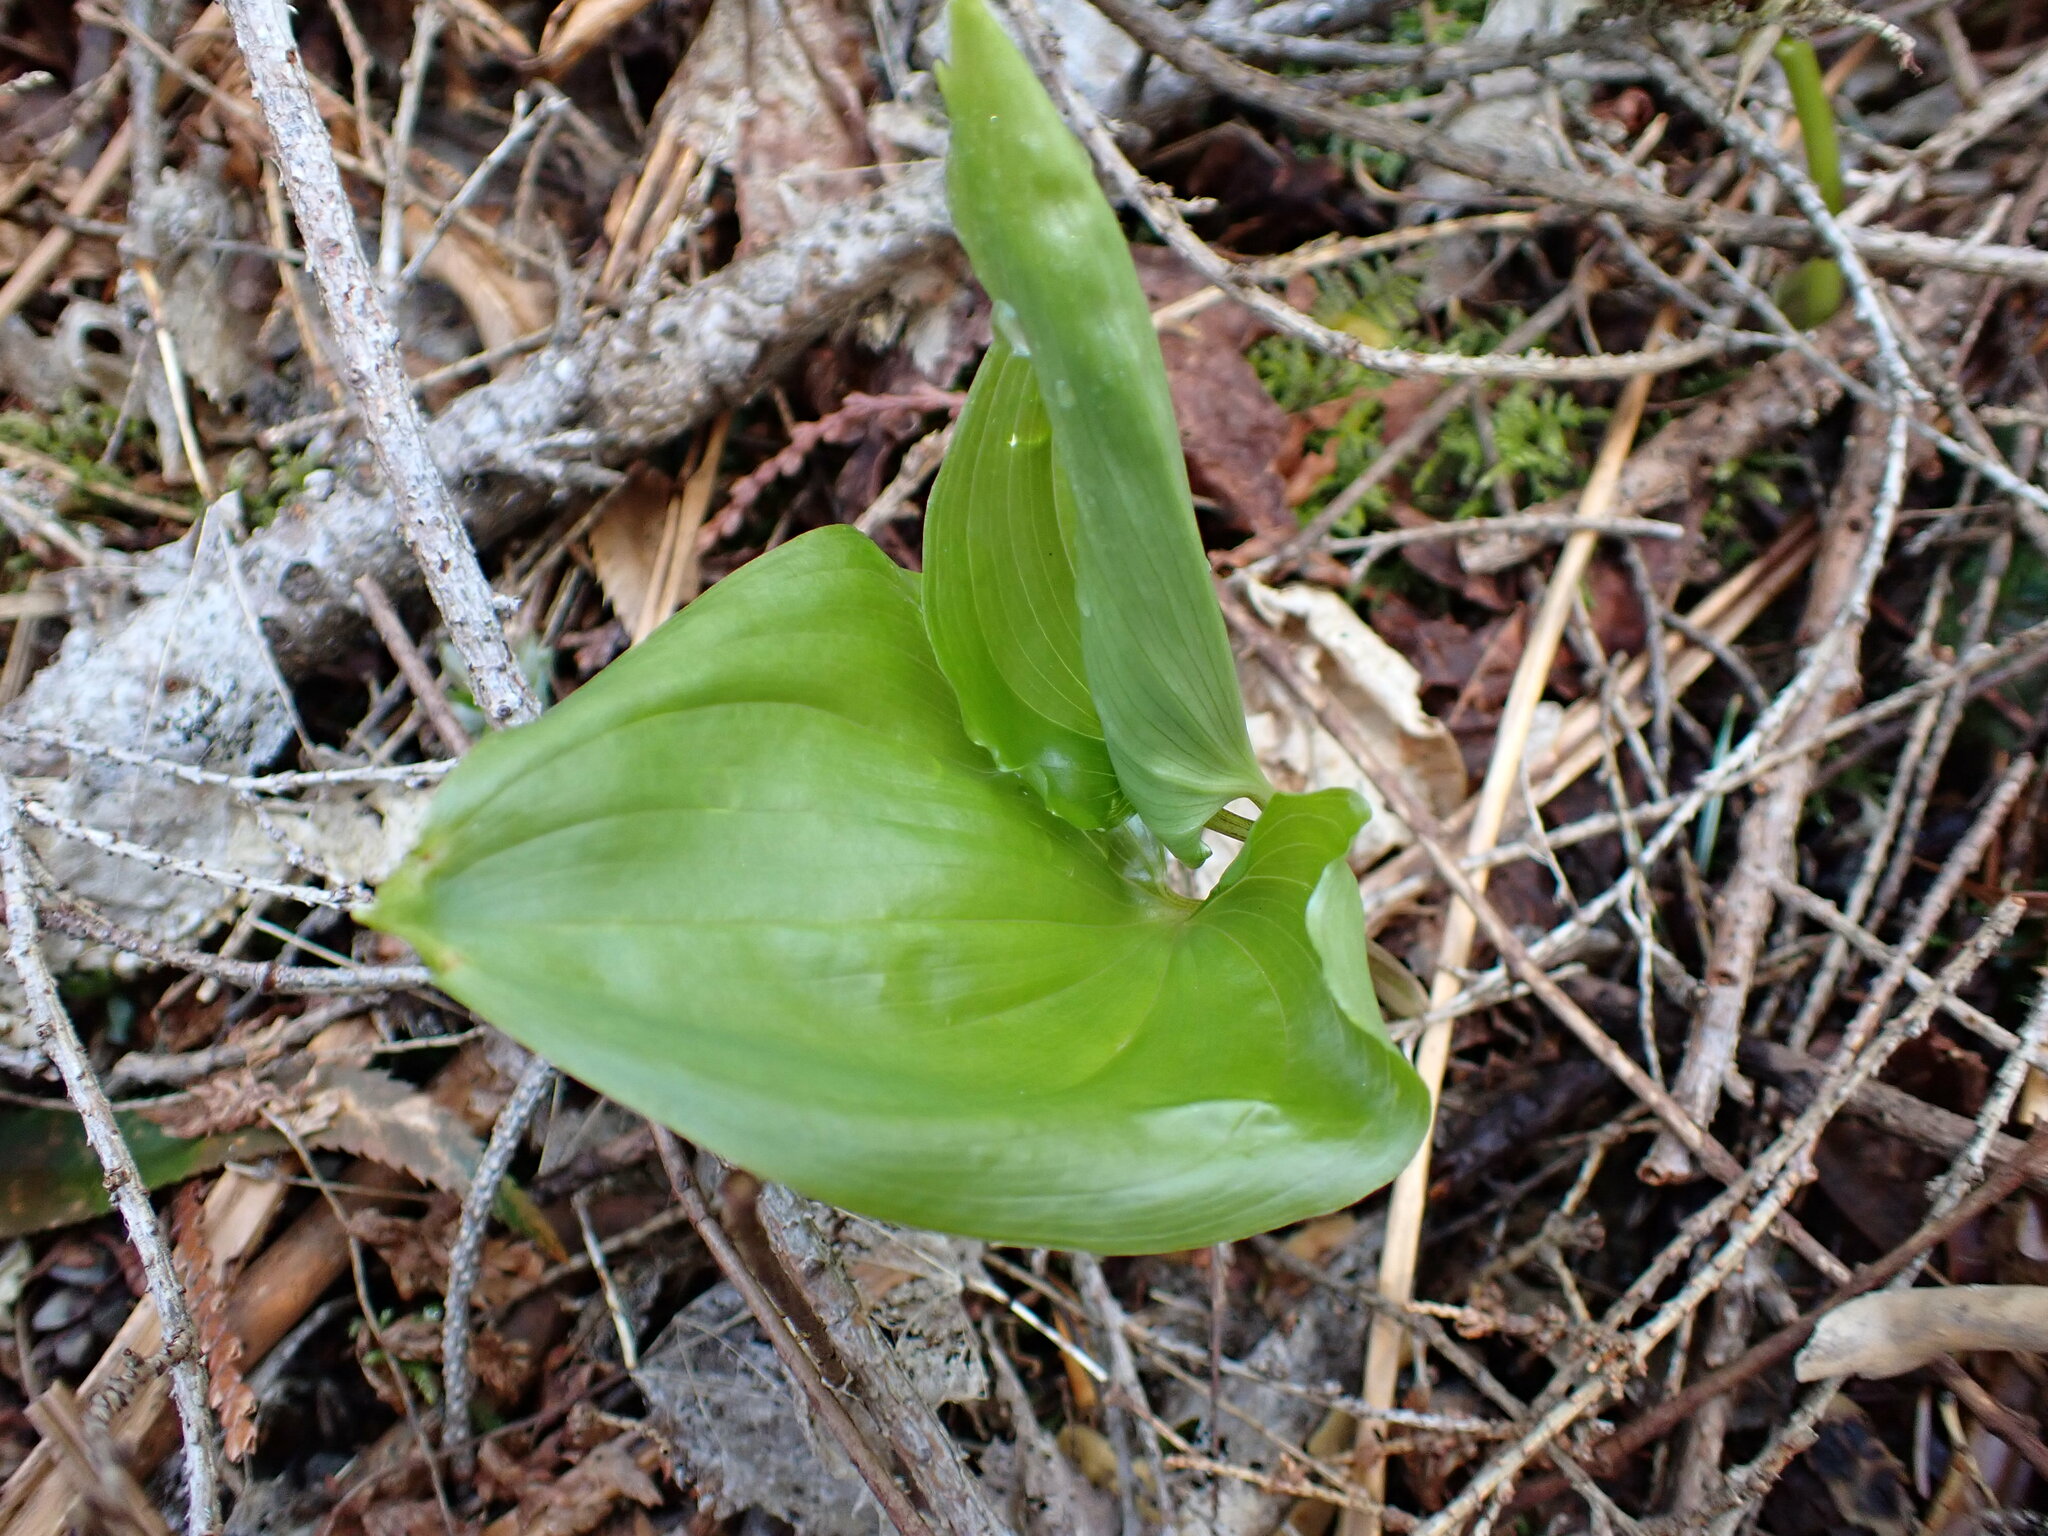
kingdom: Plantae
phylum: Tracheophyta
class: Liliopsida
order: Asparagales
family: Asparagaceae
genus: Maianthemum
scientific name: Maianthemum dilatatum
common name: False lily-of-the-valley
